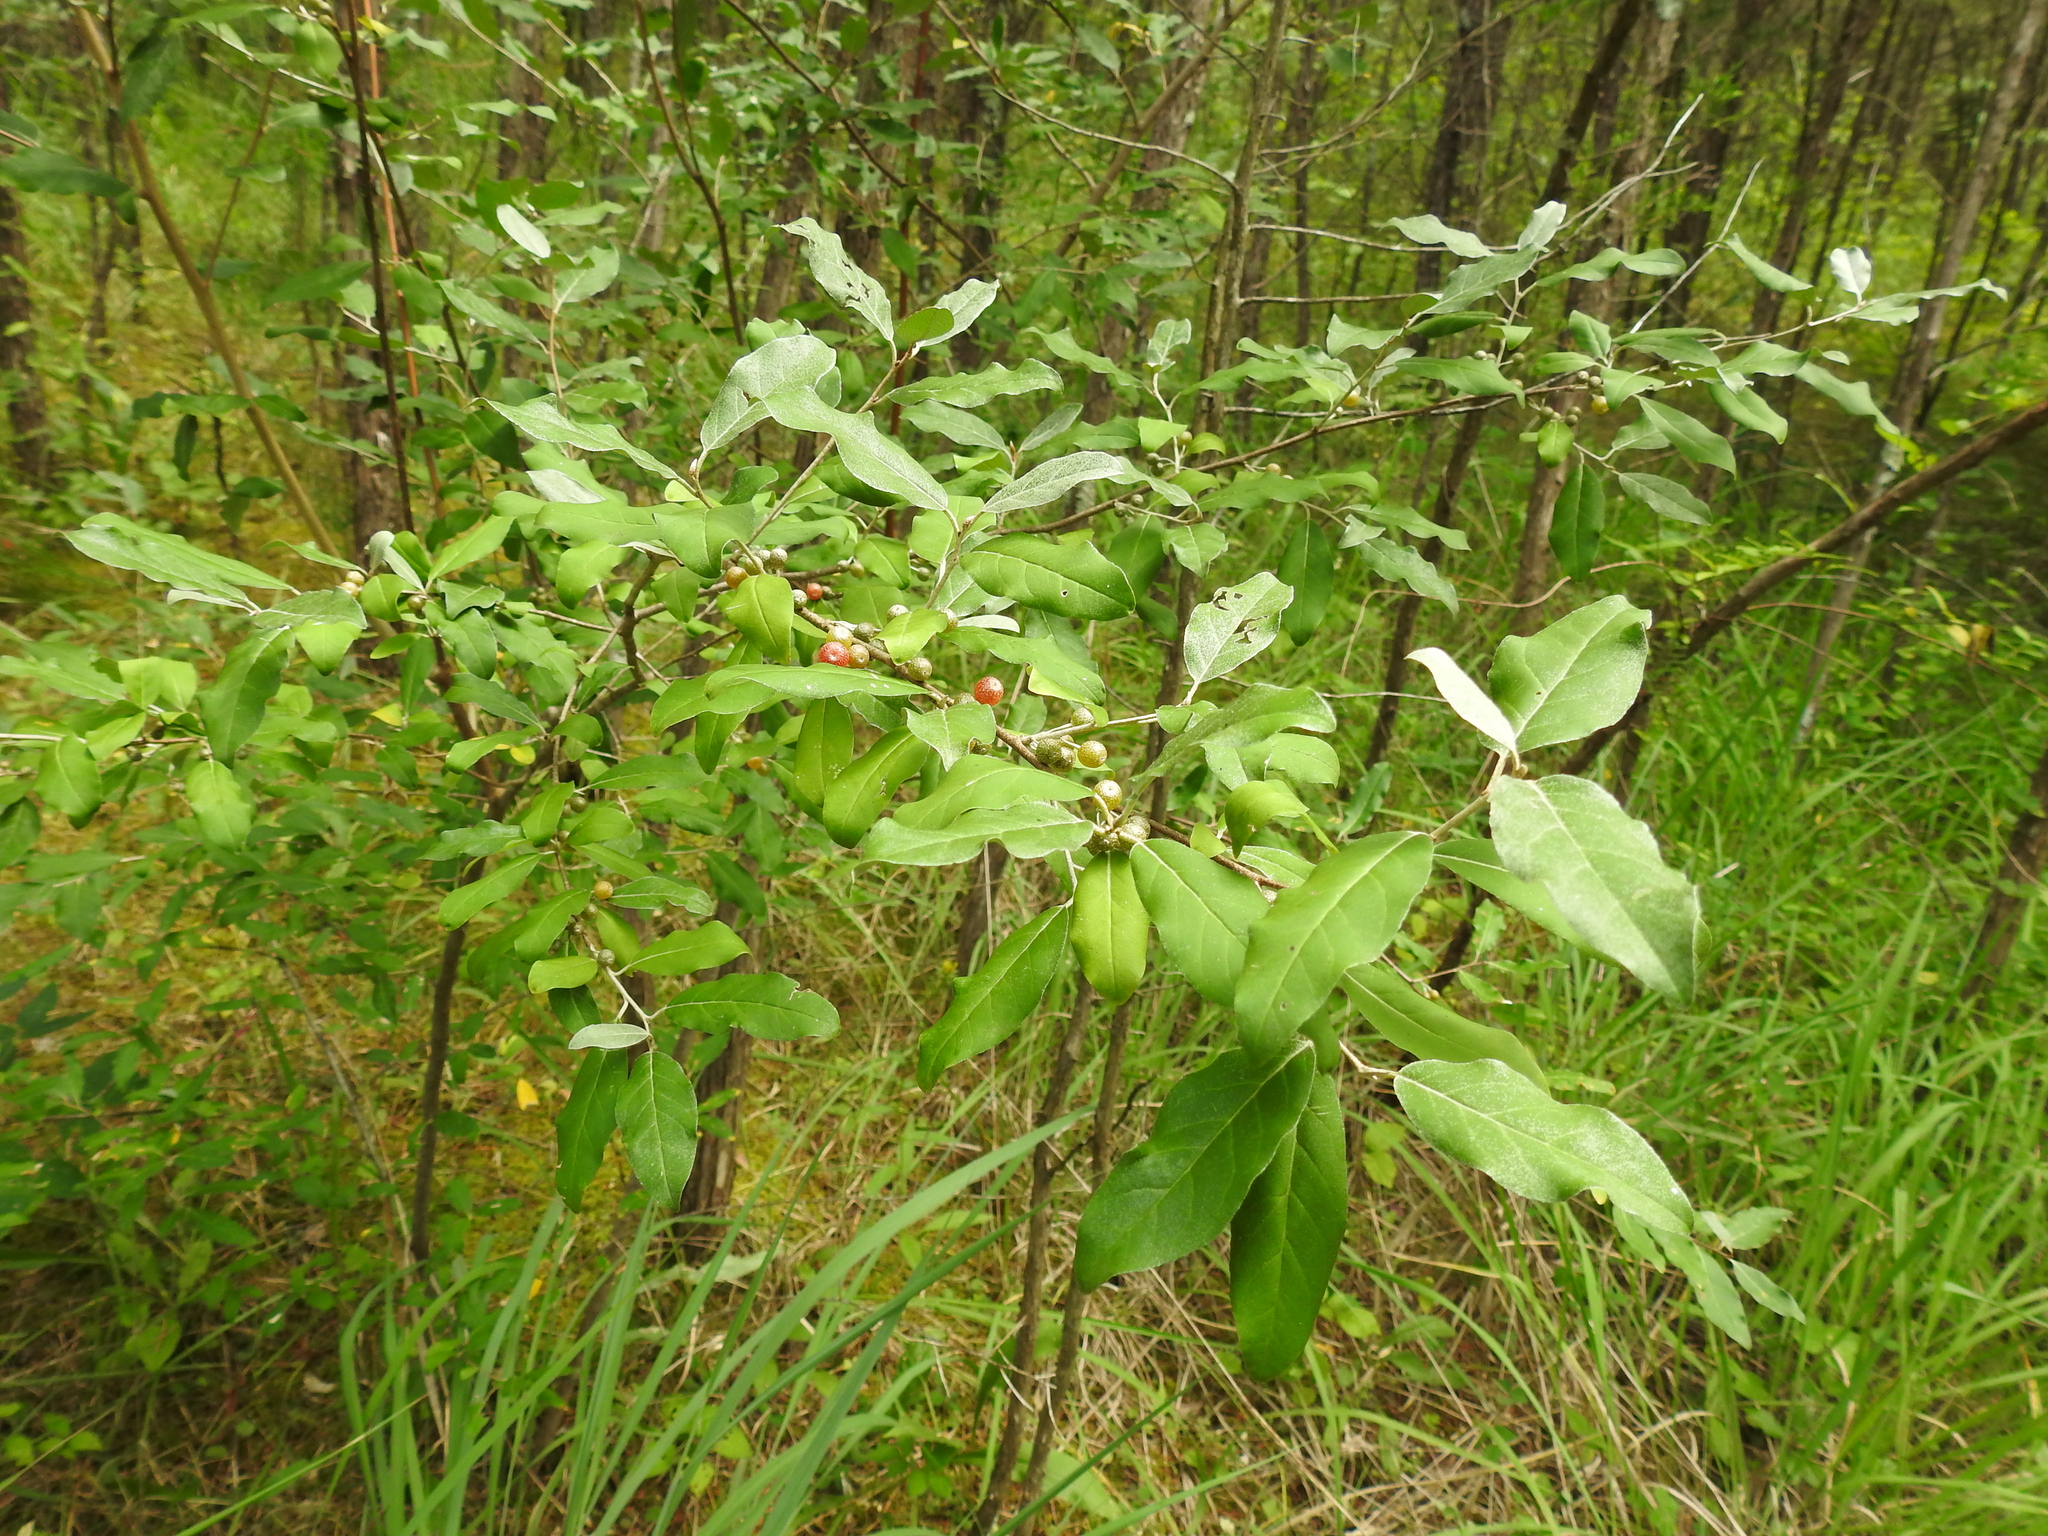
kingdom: Plantae
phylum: Tracheophyta
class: Magnoliopsida
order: Rosales
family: Elaeagnaceae
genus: Elaeagnus
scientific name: Elaeagnus umbellata
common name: Autumn olive
